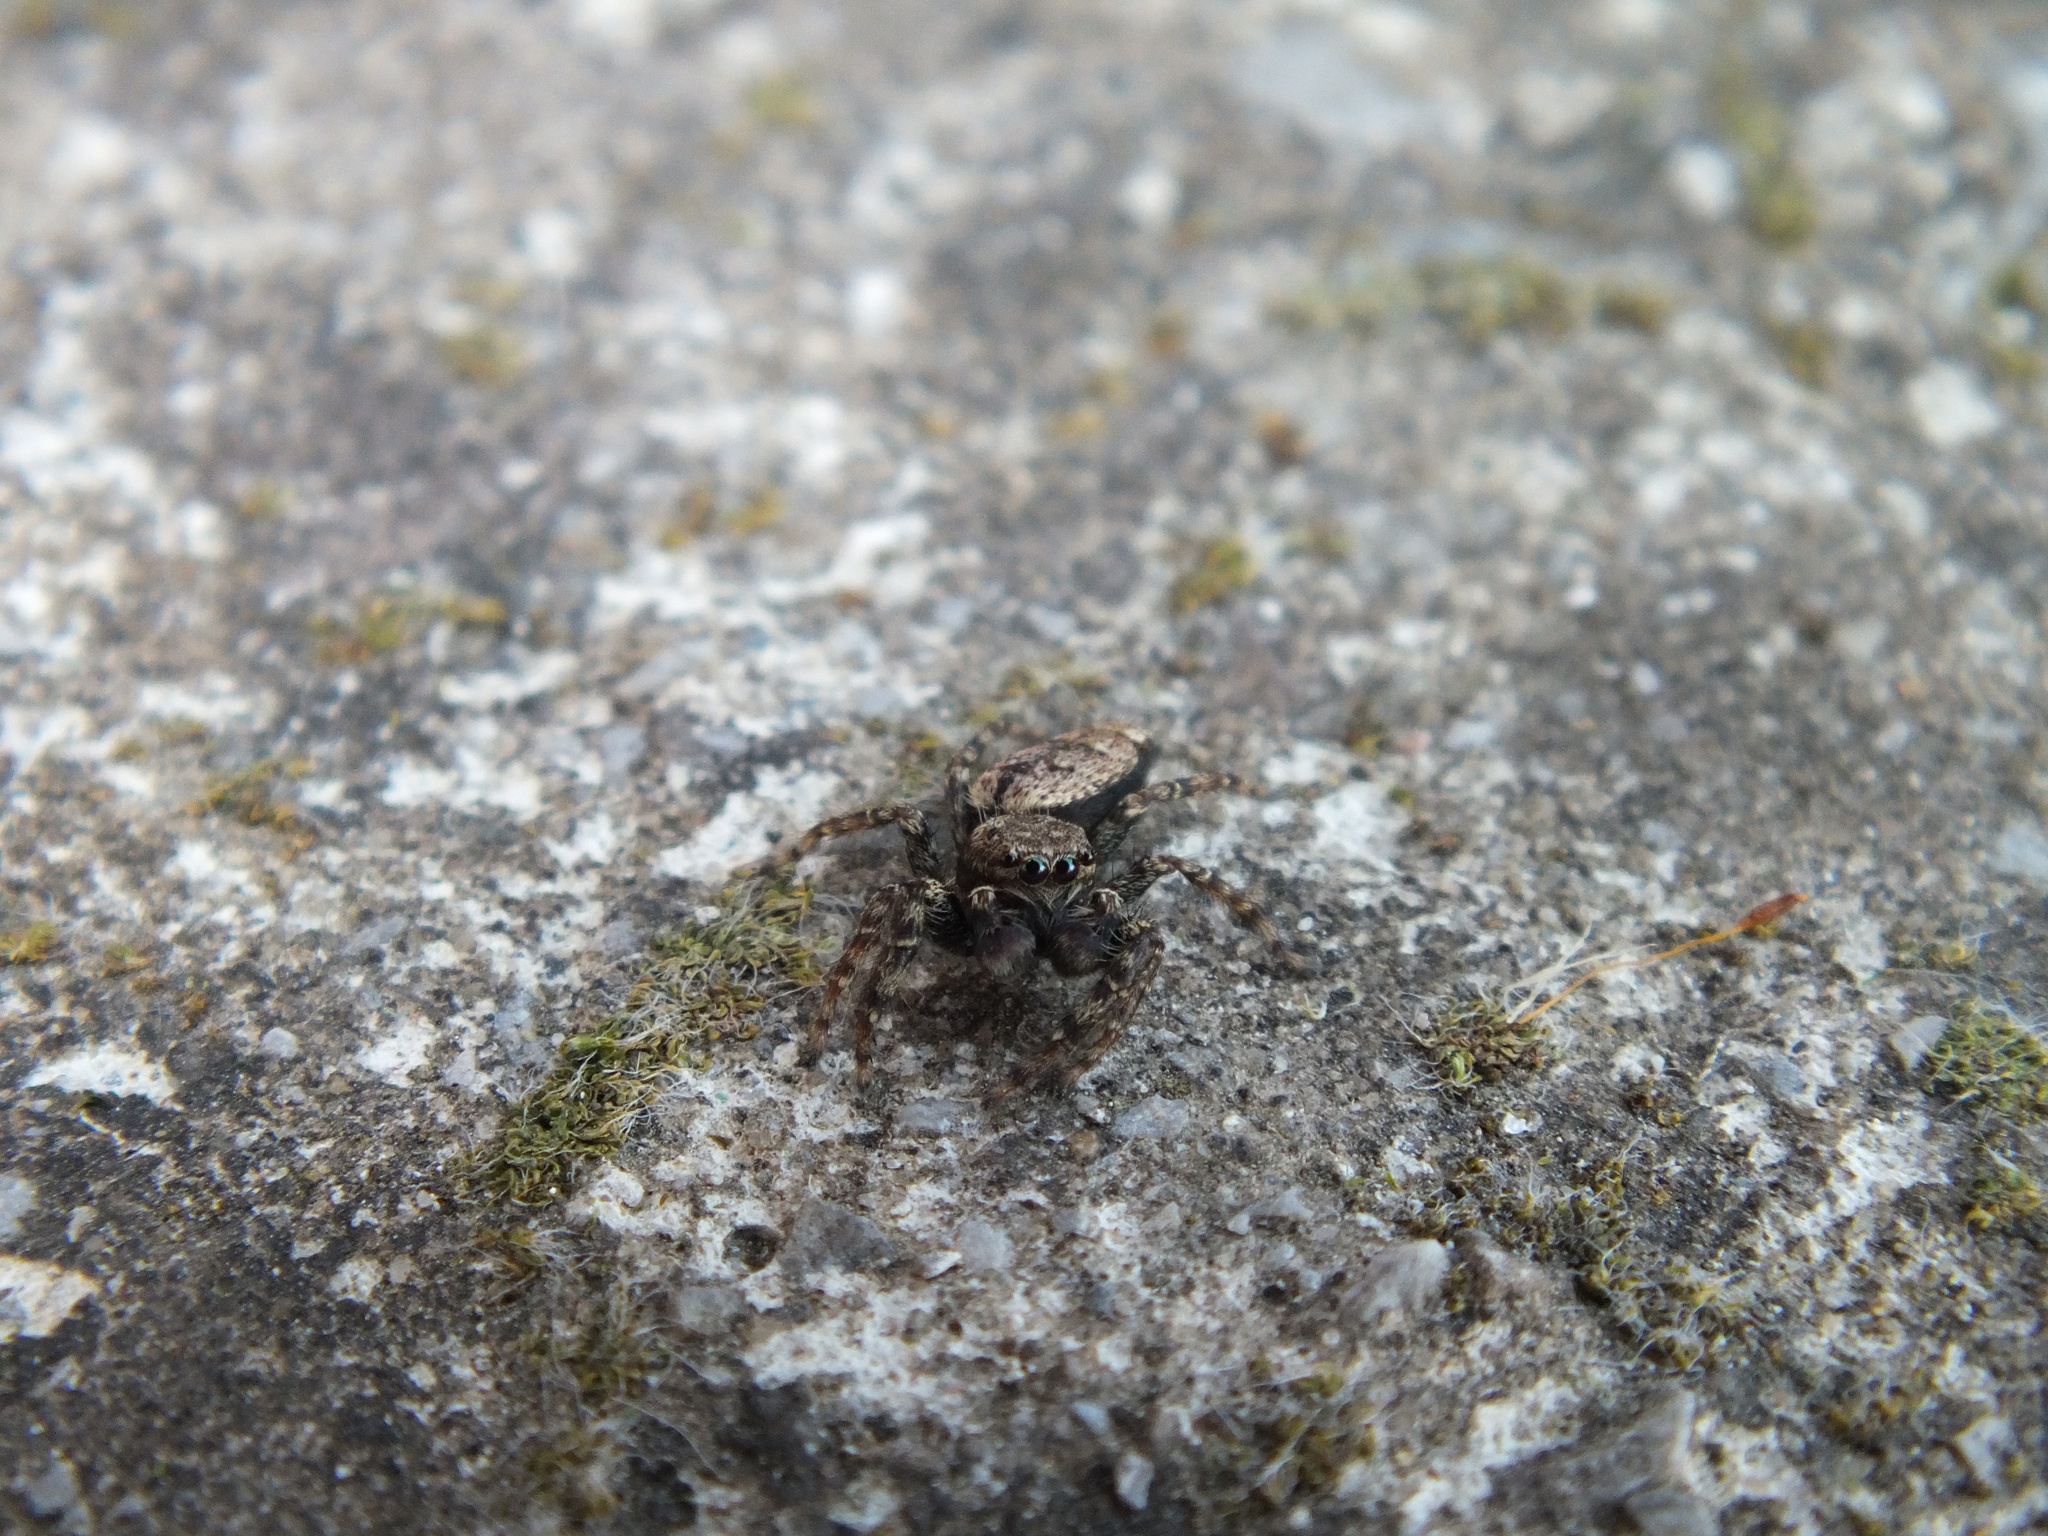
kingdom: Animalia
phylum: Arthropoda
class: Arachnida
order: Araneae
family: Salticidae
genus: Marpissa
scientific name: Marpissa muscosa
